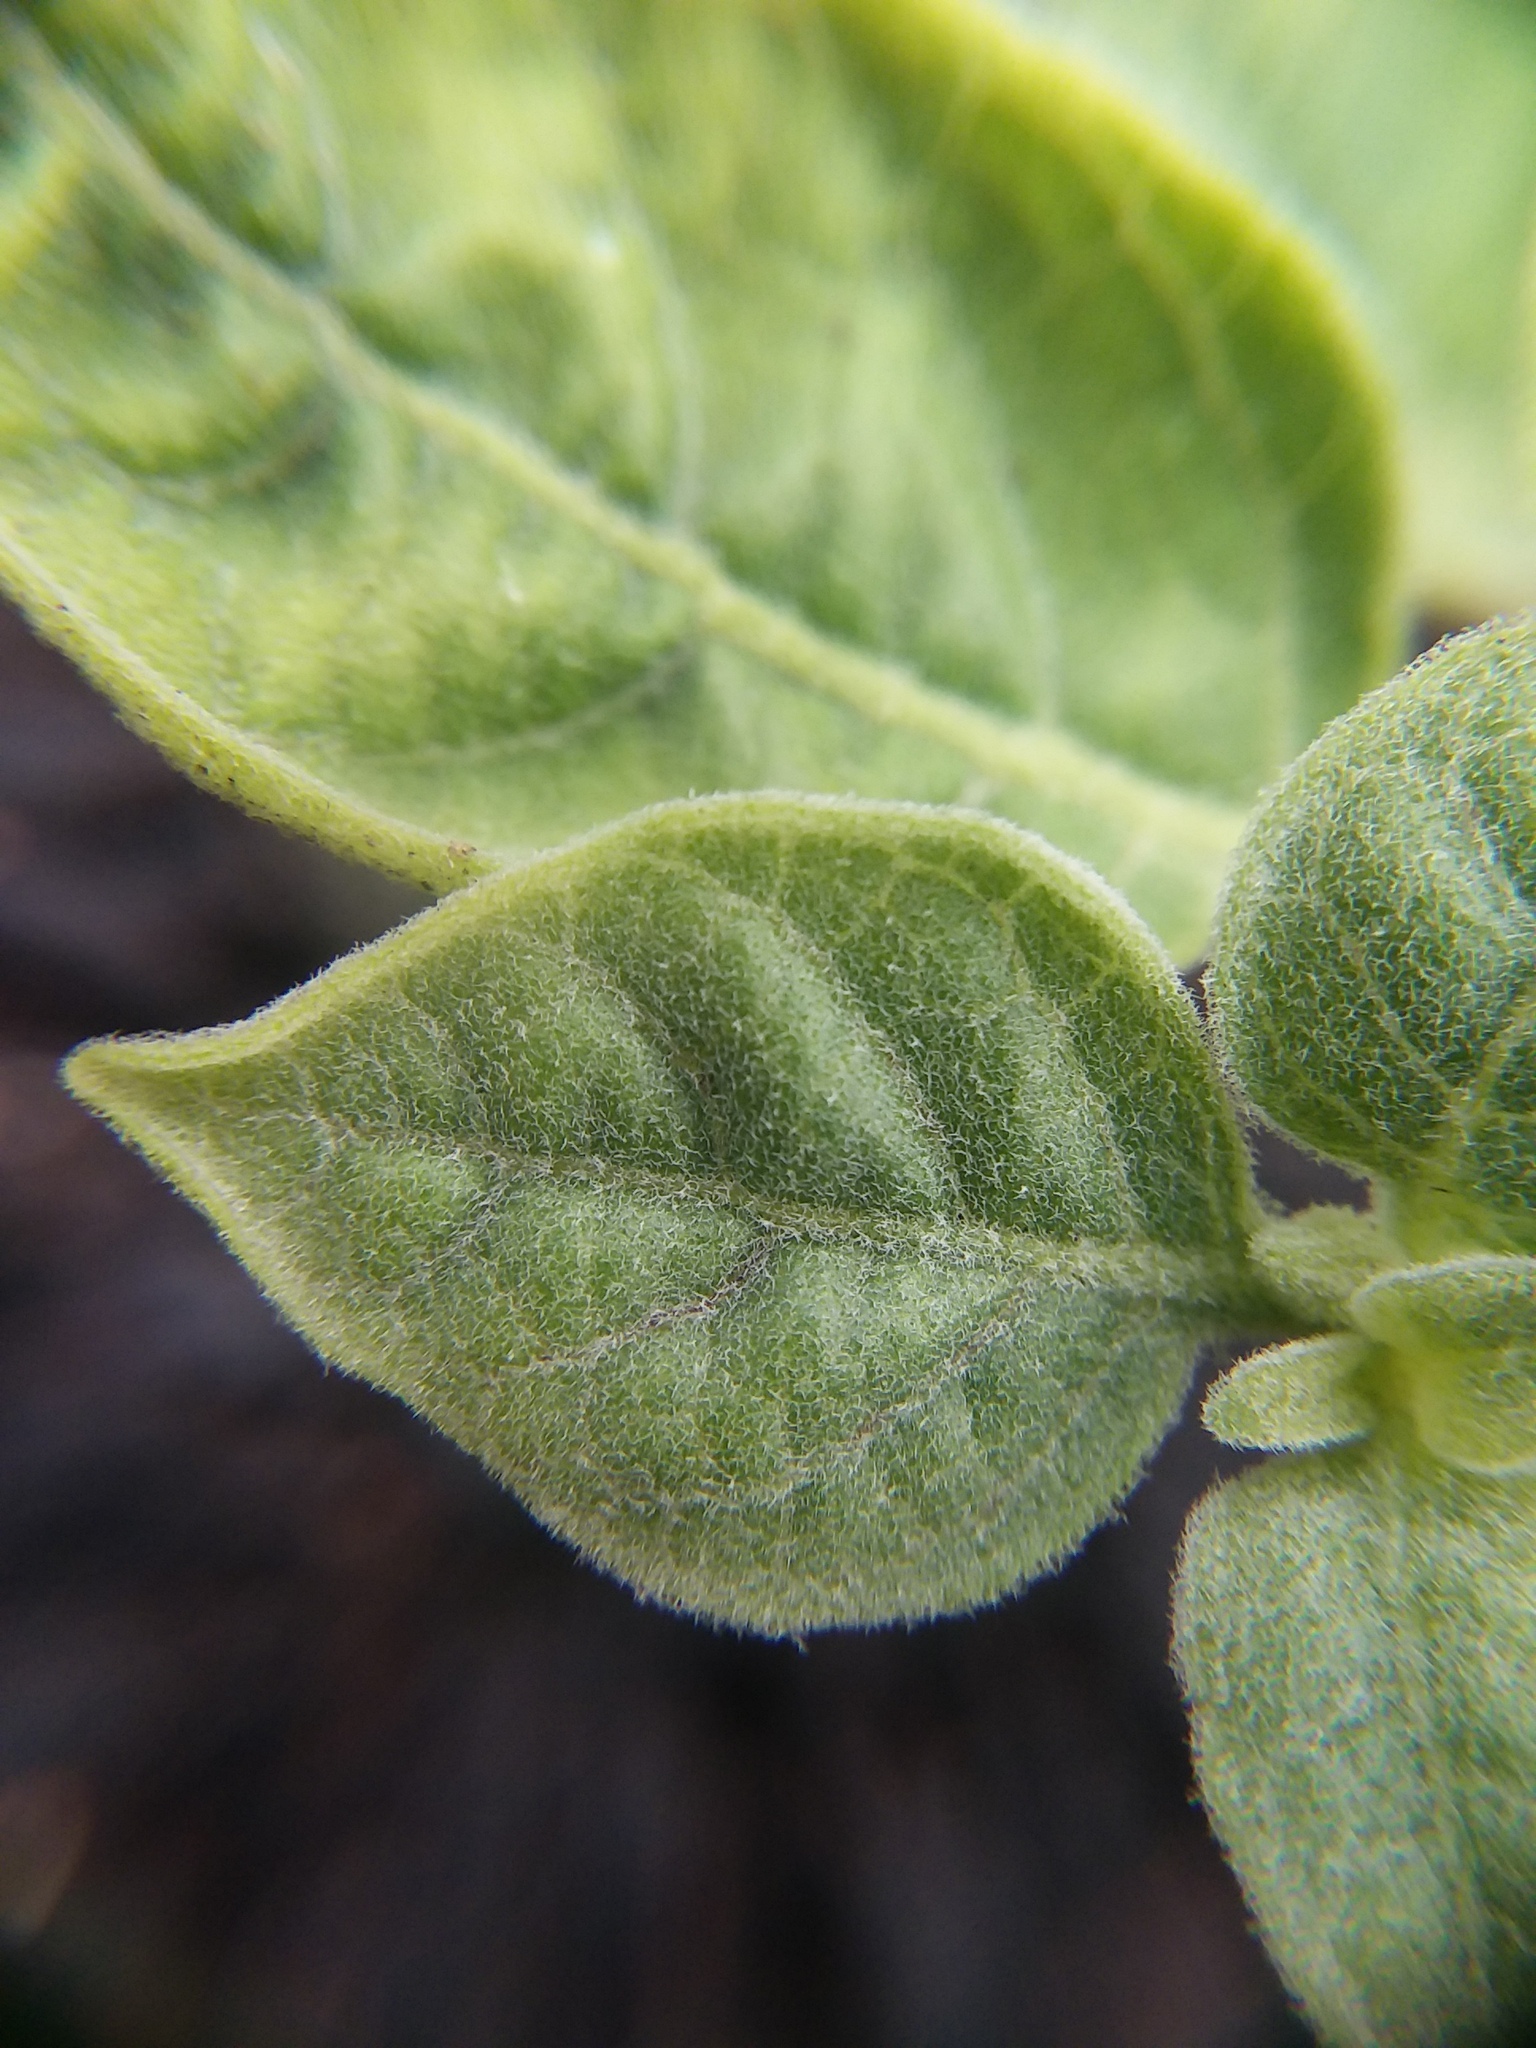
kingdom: Plantae
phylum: Tracheophyta
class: Magnoliopsida
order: Solanales
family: Solanaceae
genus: Physalis
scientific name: Physalis walteri
